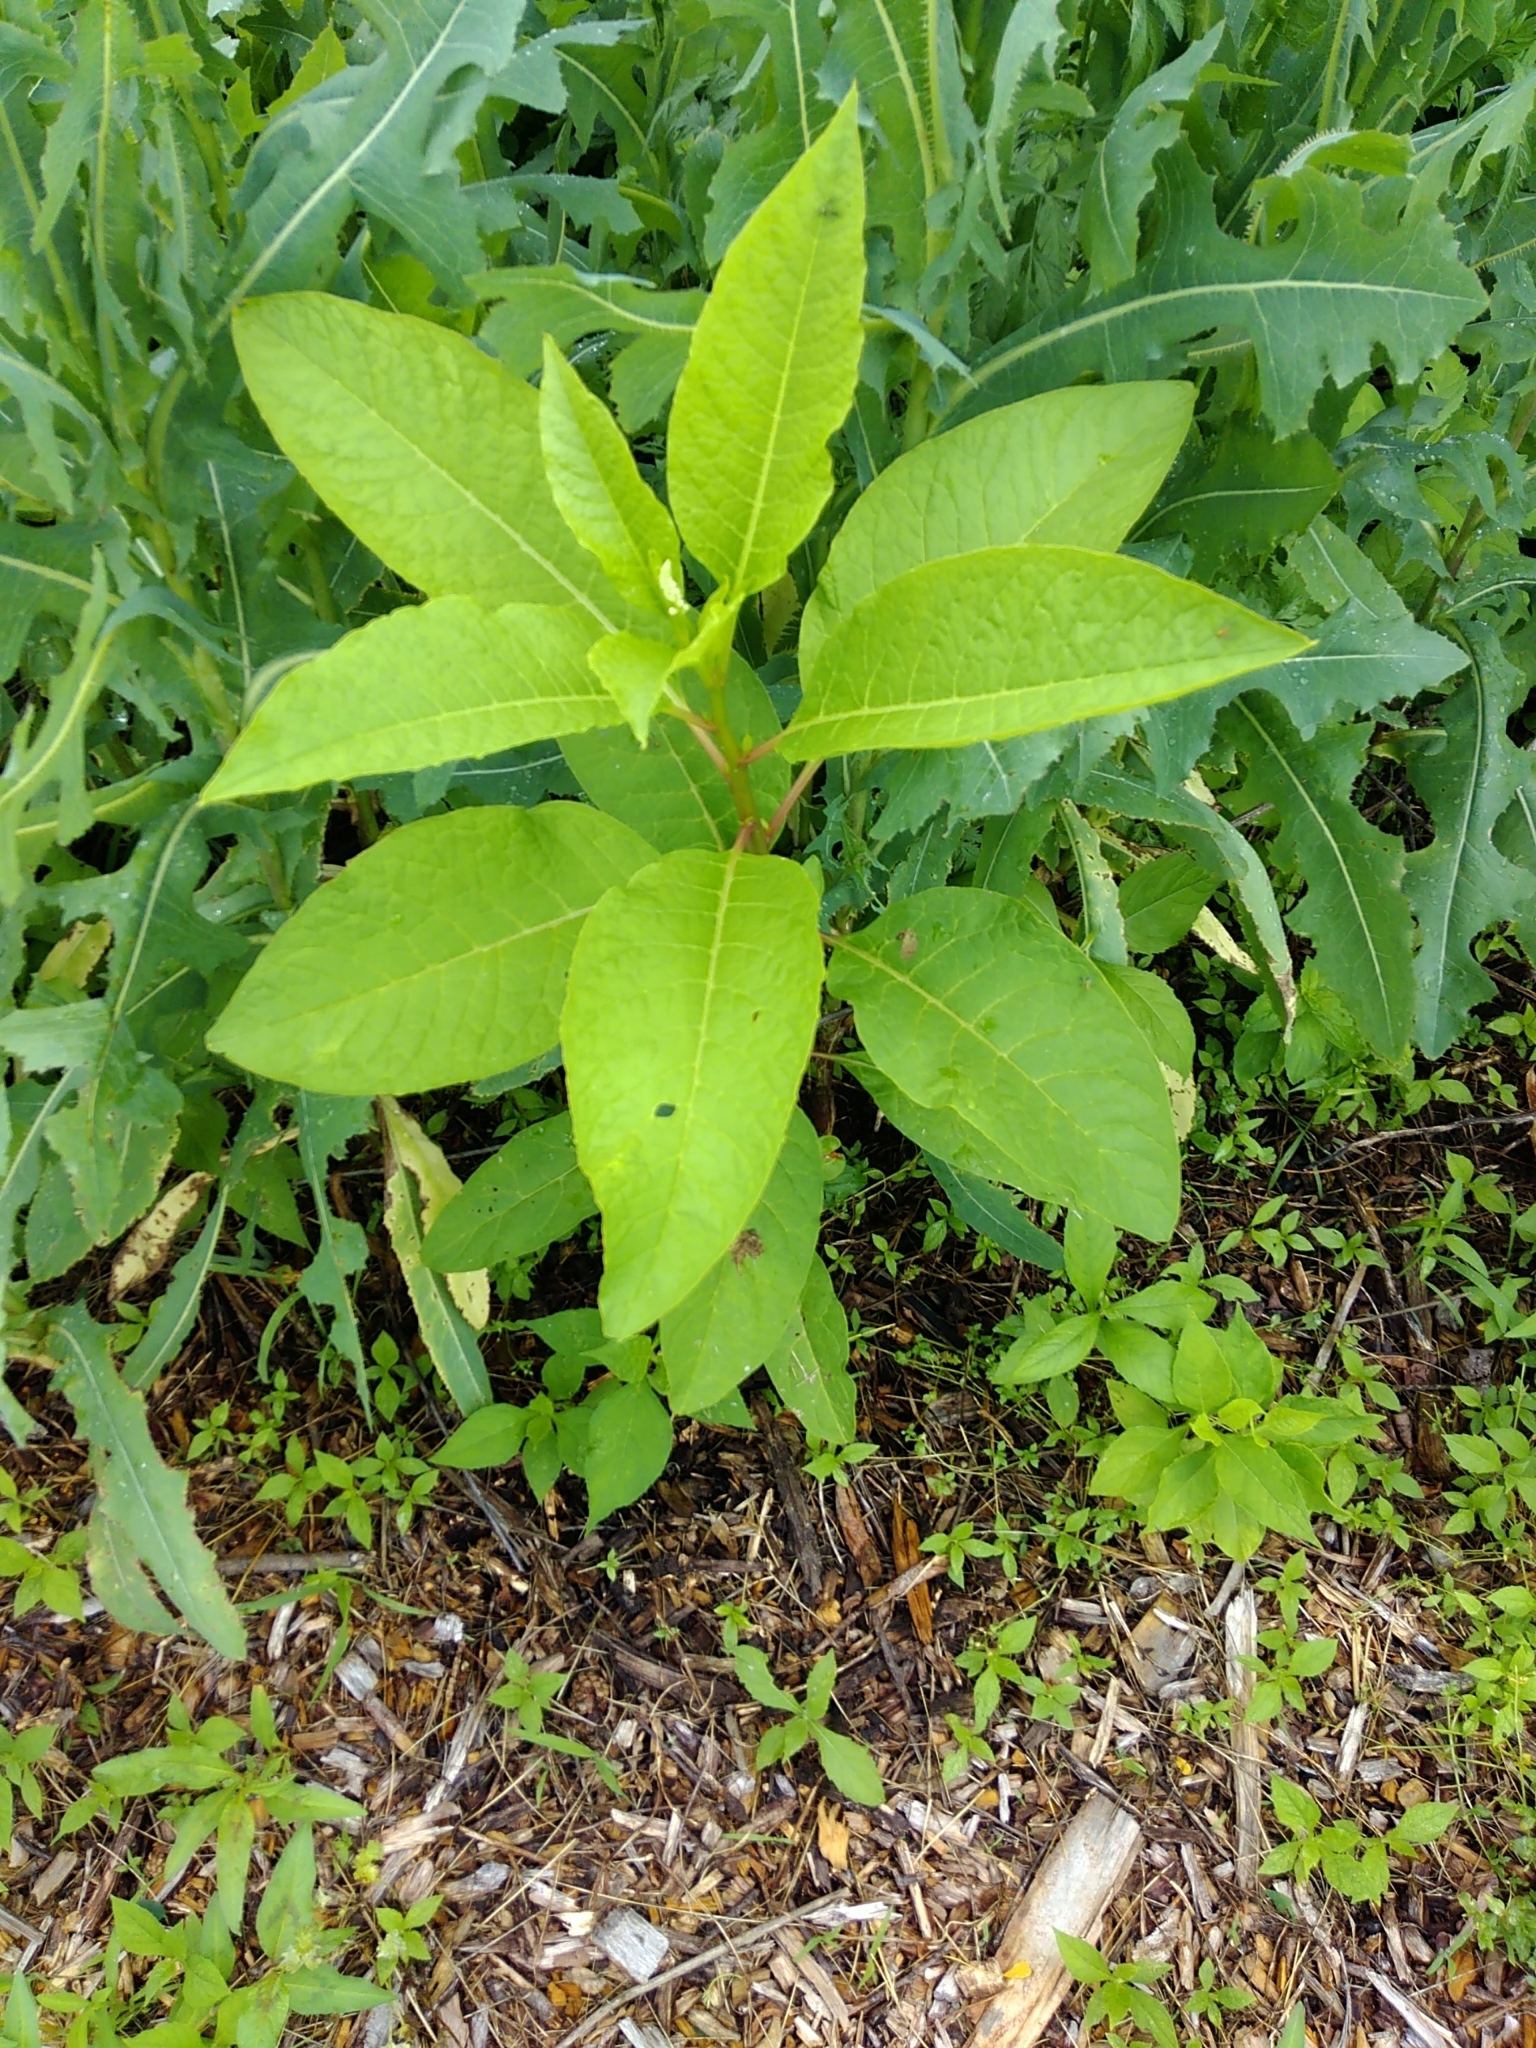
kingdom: Plantae
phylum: Tracheophyta
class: Magnoliopsida
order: Caryophyllales
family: Phytolaccaceae
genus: Phytolacca
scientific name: Phytolacca americana
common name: American pokeweed
